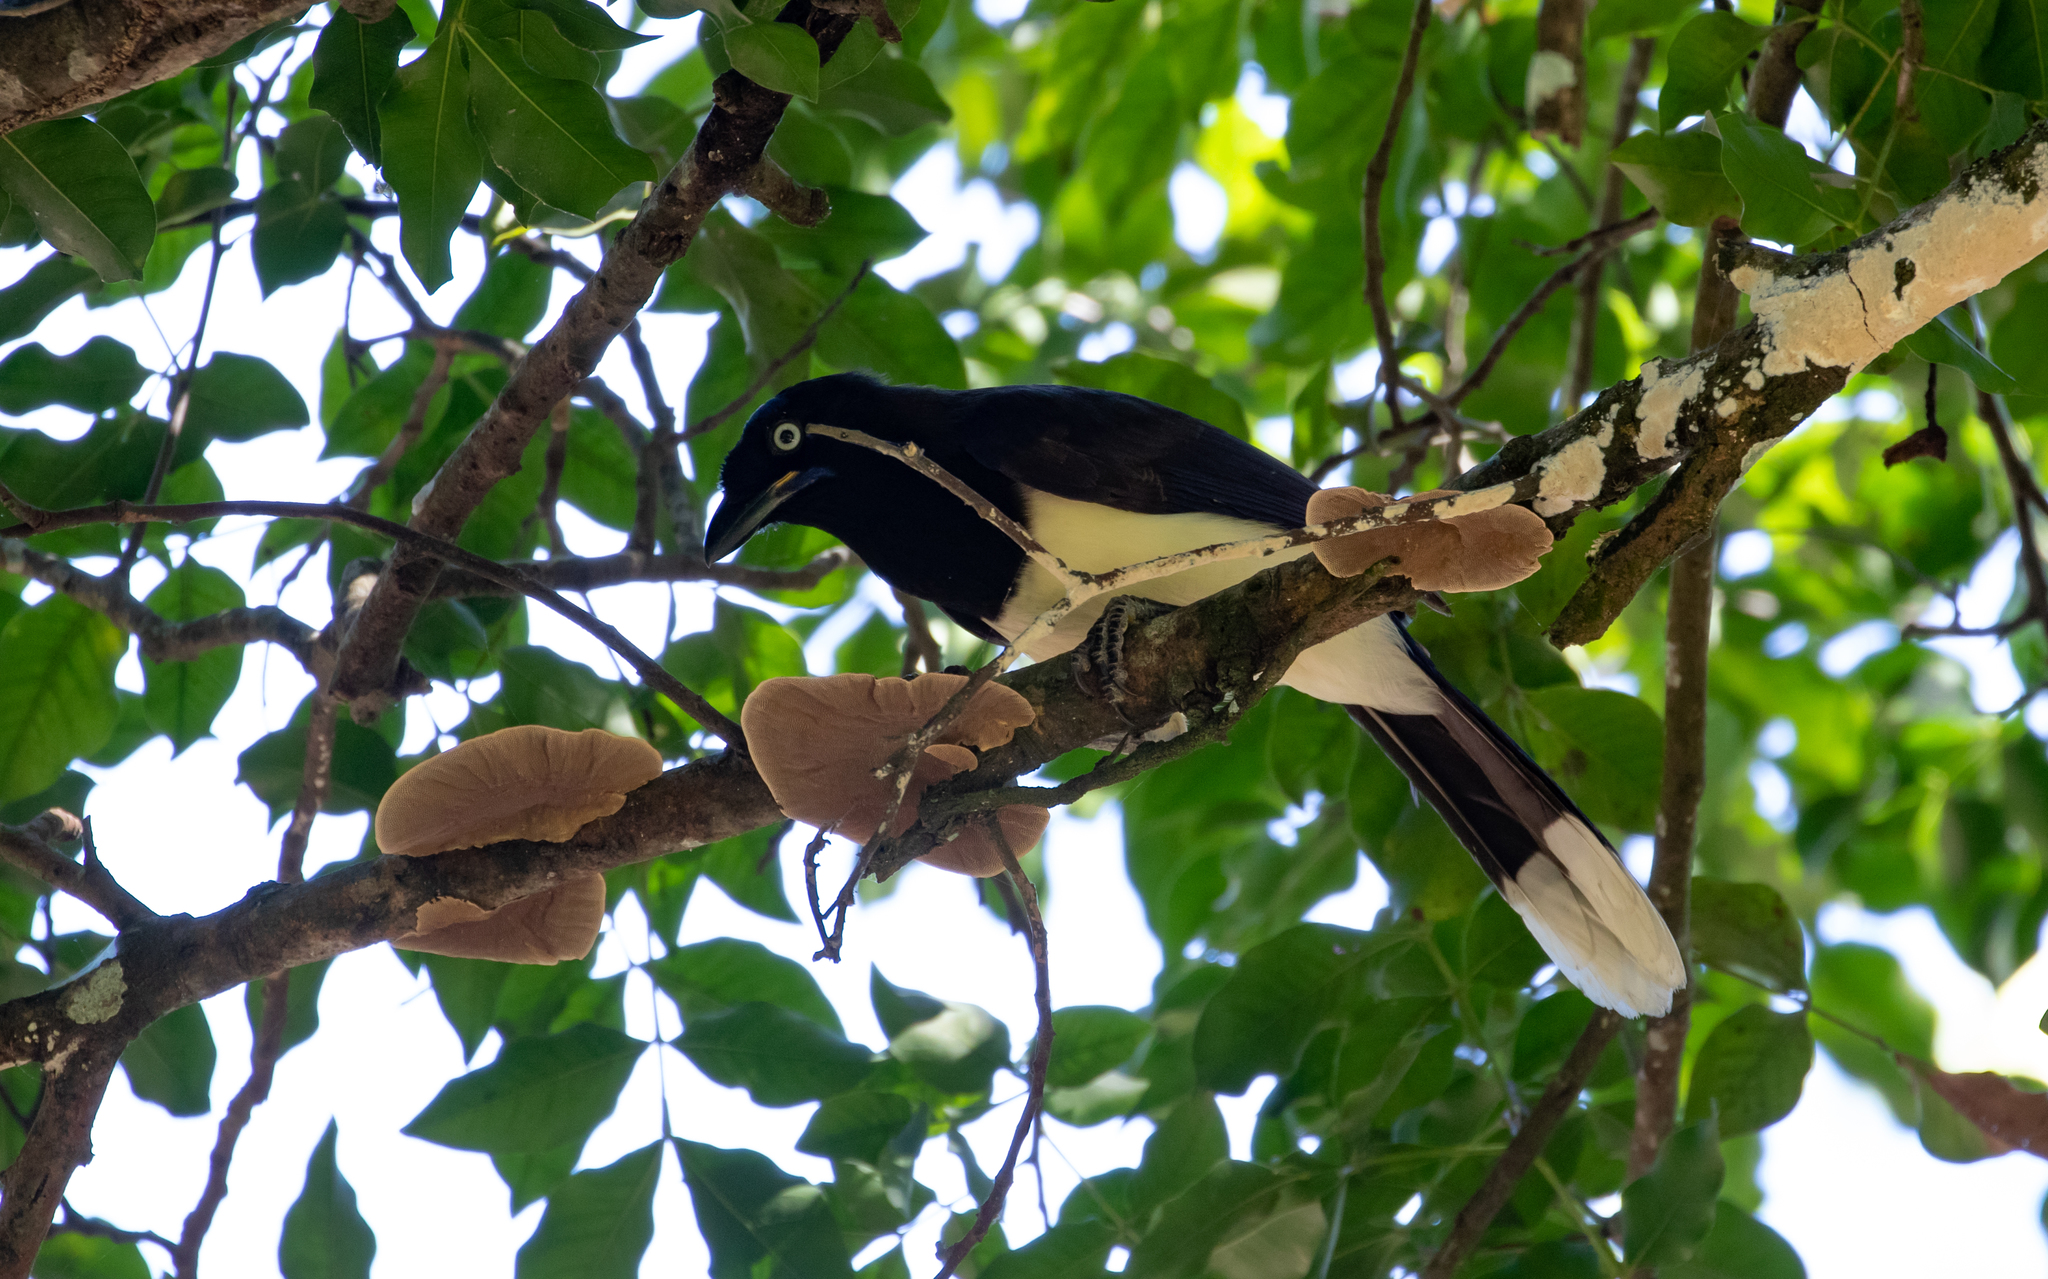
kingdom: Animalia
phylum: Chordata
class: Aves
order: Passeriformes
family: Corvidae
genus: Cyanocorax
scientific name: Cyanocorax affinis
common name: Black-chested jay
